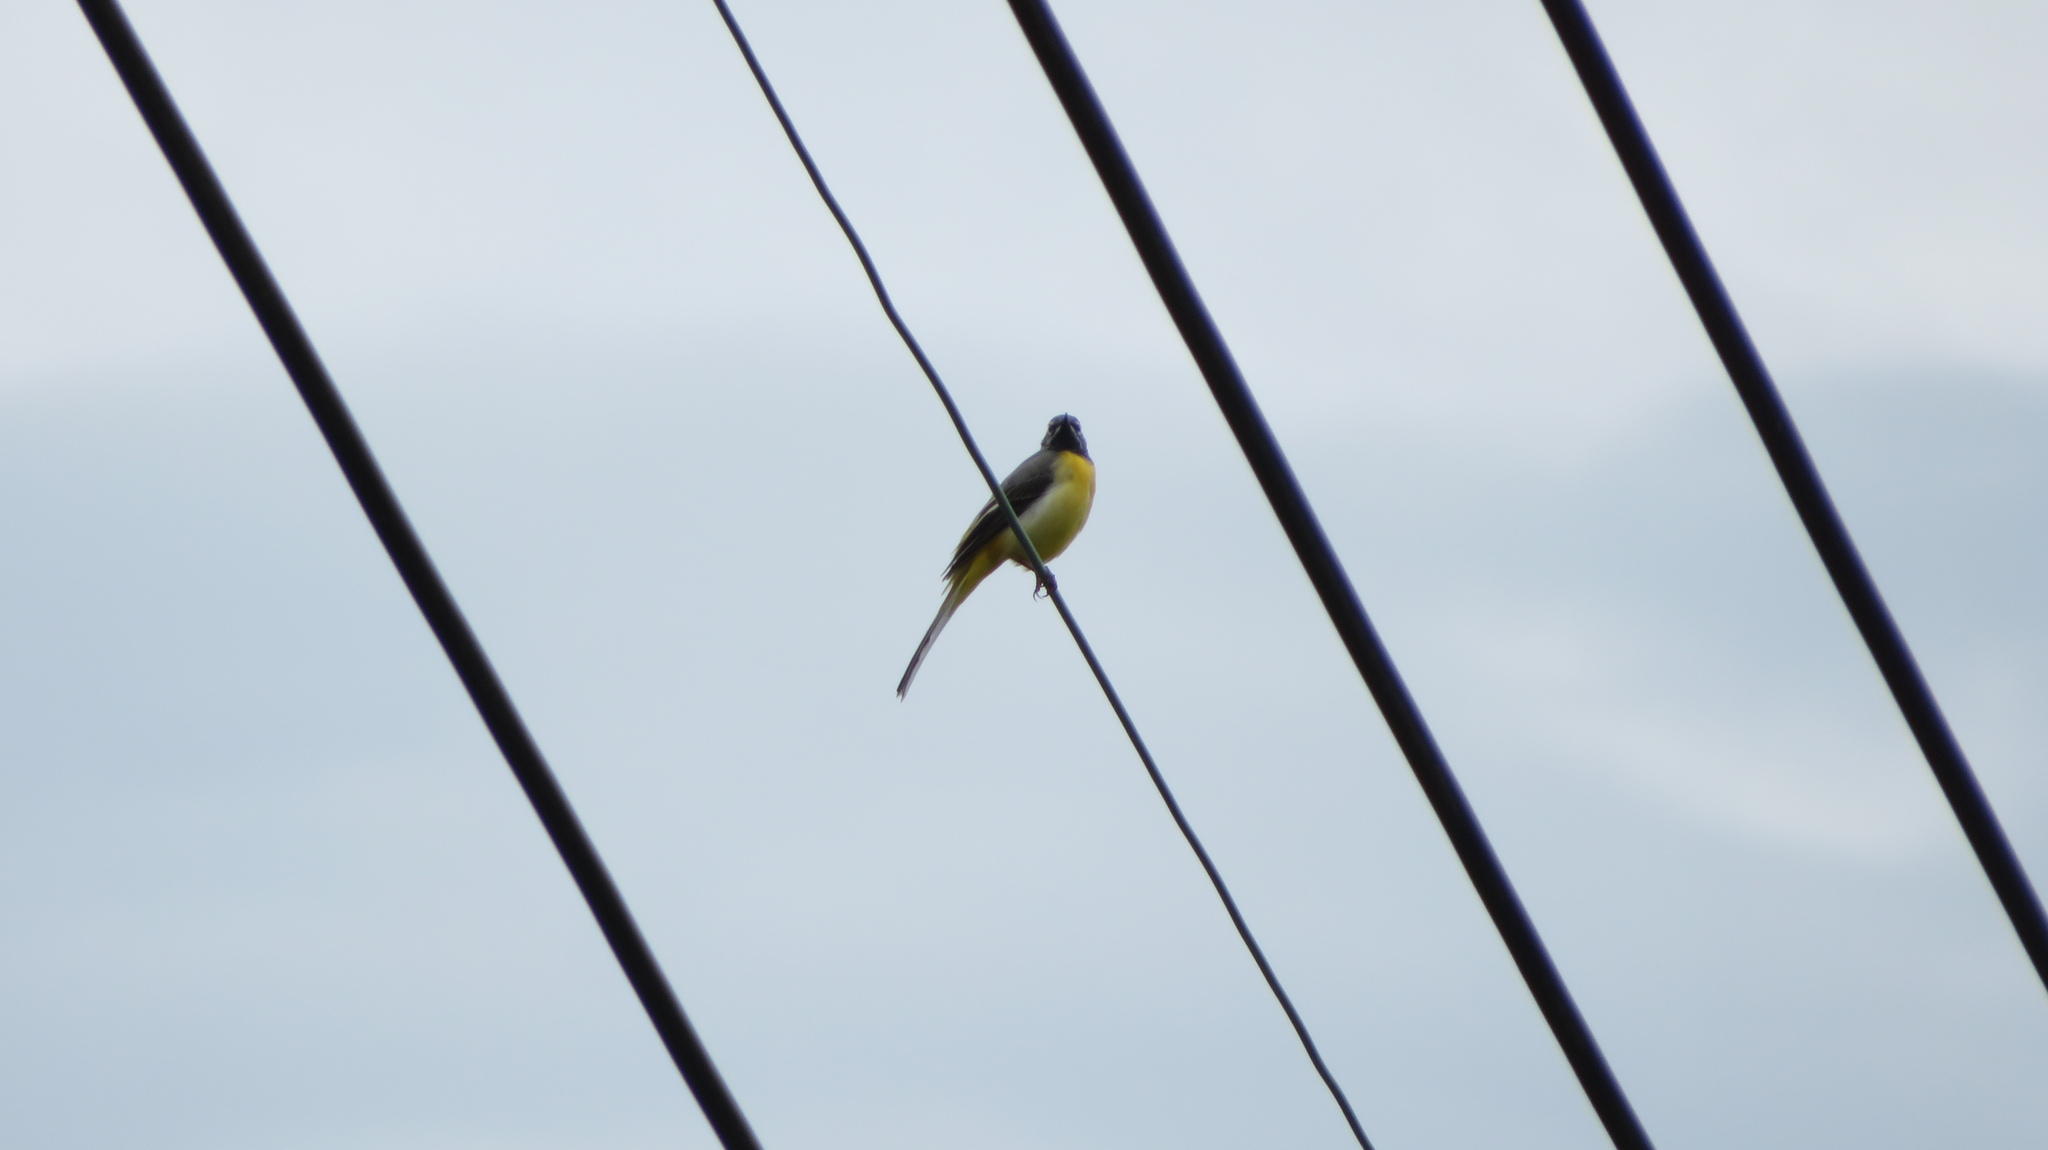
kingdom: Animalia
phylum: Chordata
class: Aves
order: Passeriformes
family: Motacillidae
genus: Motacilla
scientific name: Motacilla cinerea
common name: Grey wagtail
